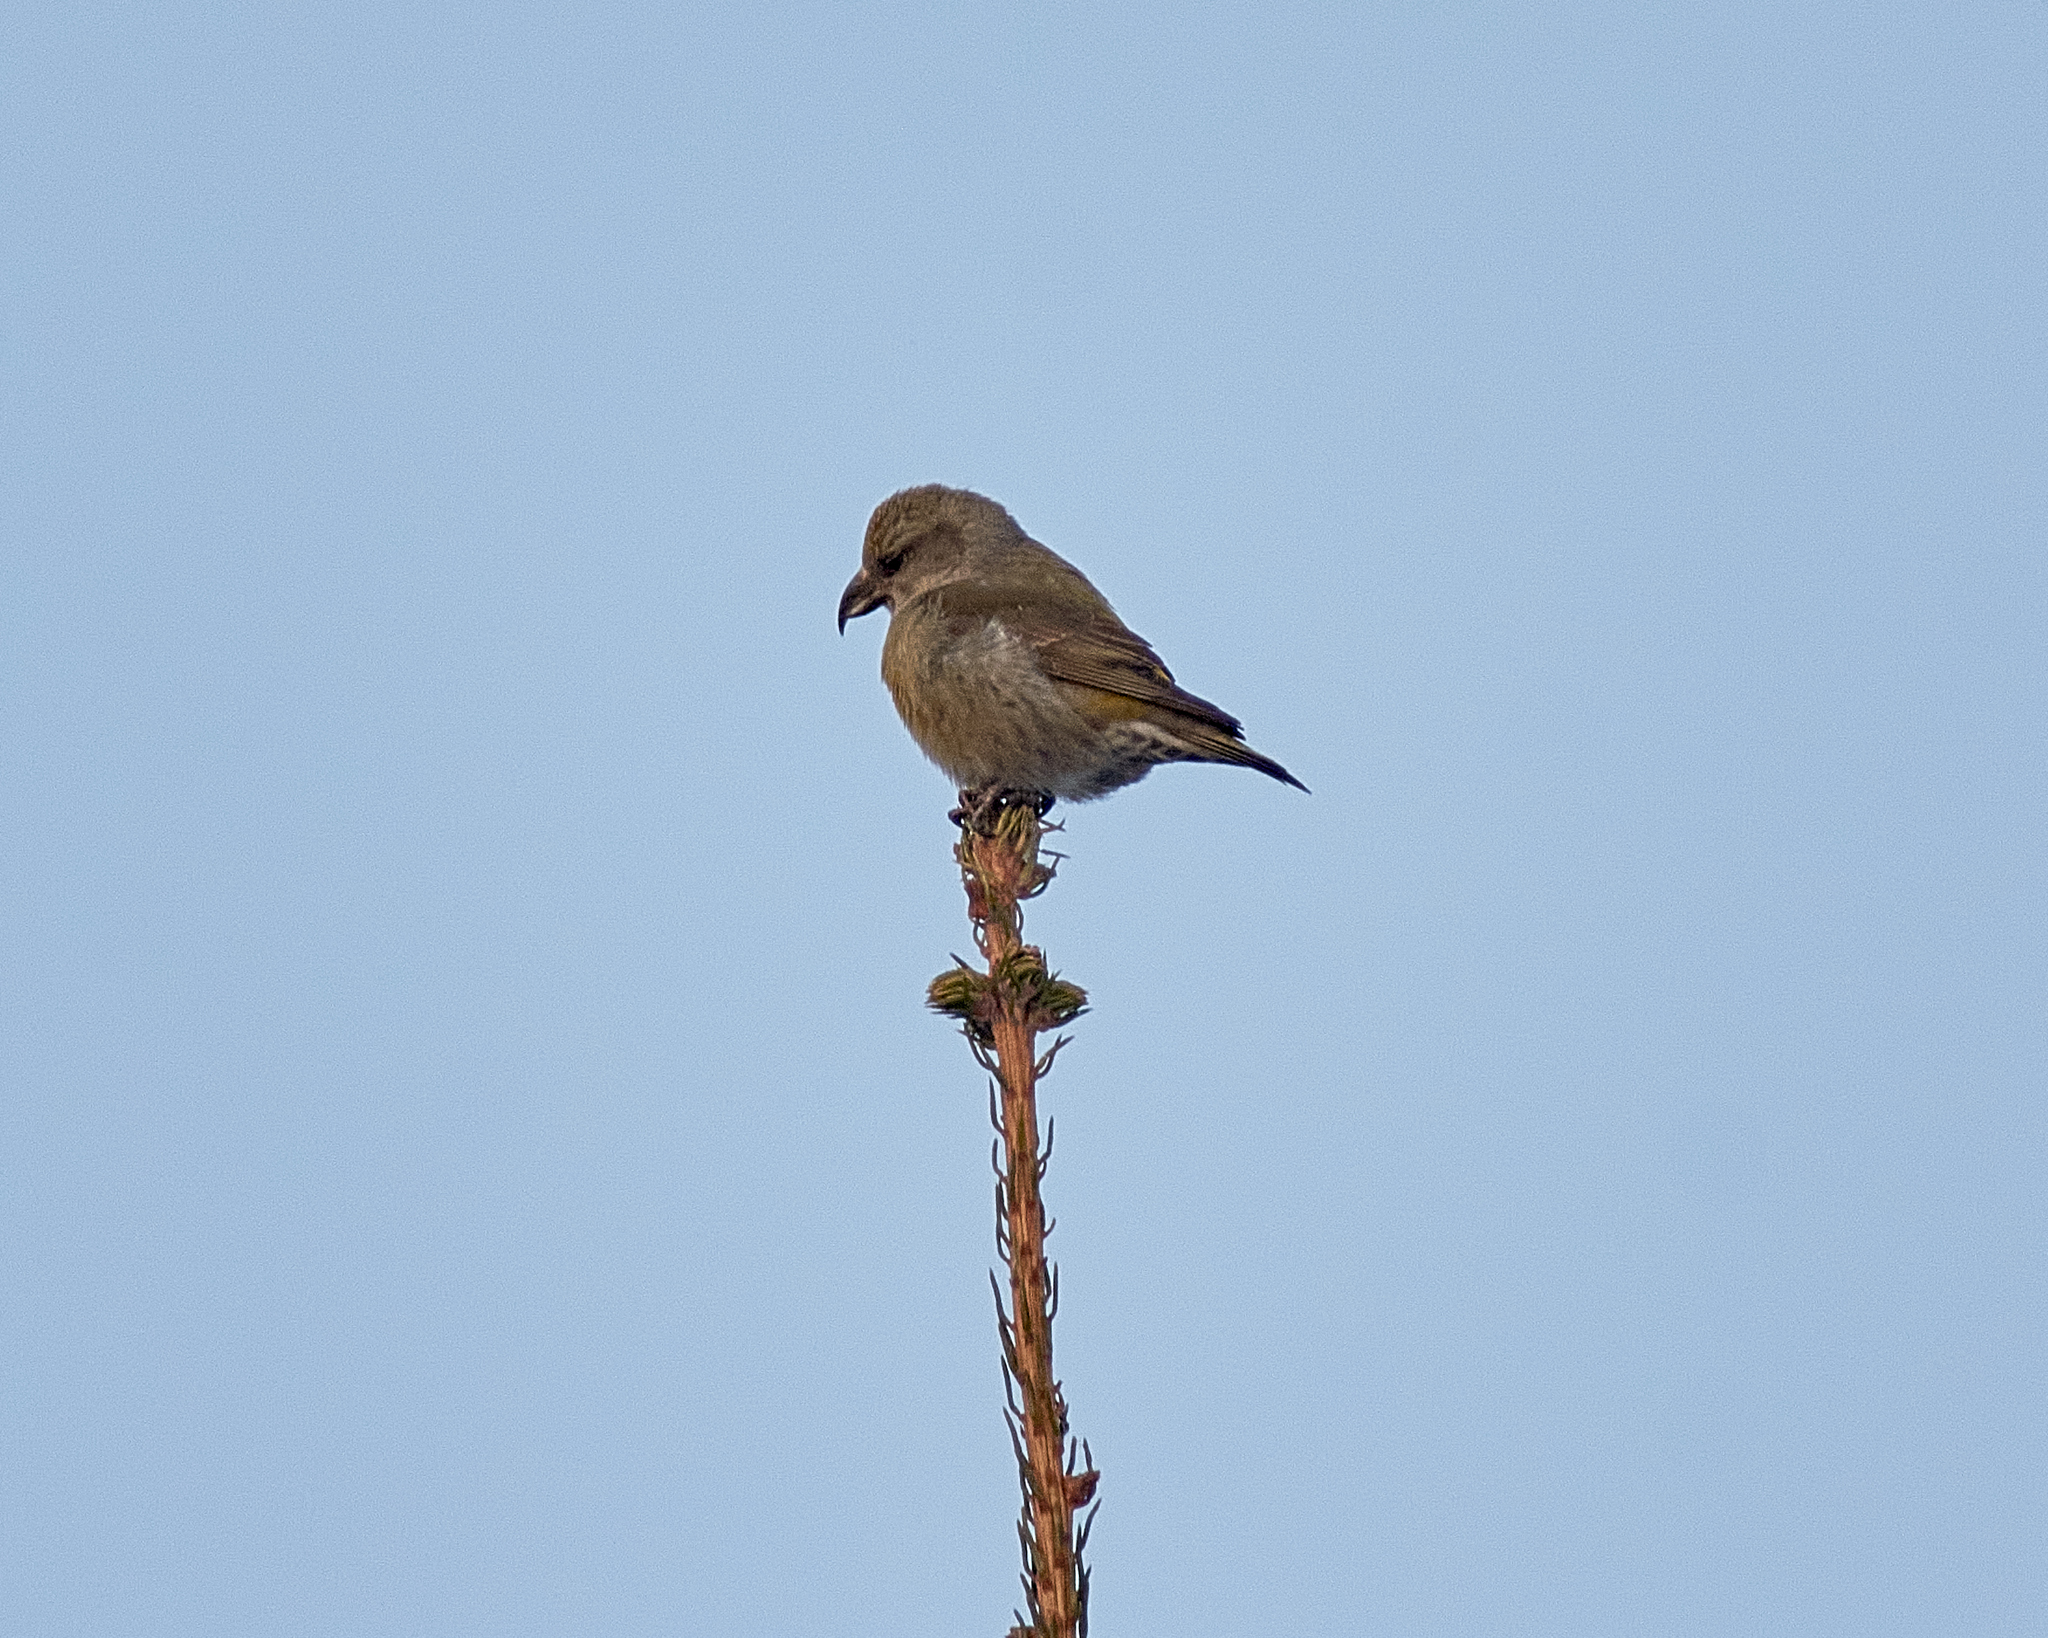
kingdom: Animalia
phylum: Chordata
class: Aves
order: Passeriformes
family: Fringillidae
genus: Loxia
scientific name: Loxia curvirostra
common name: Red crossbill
